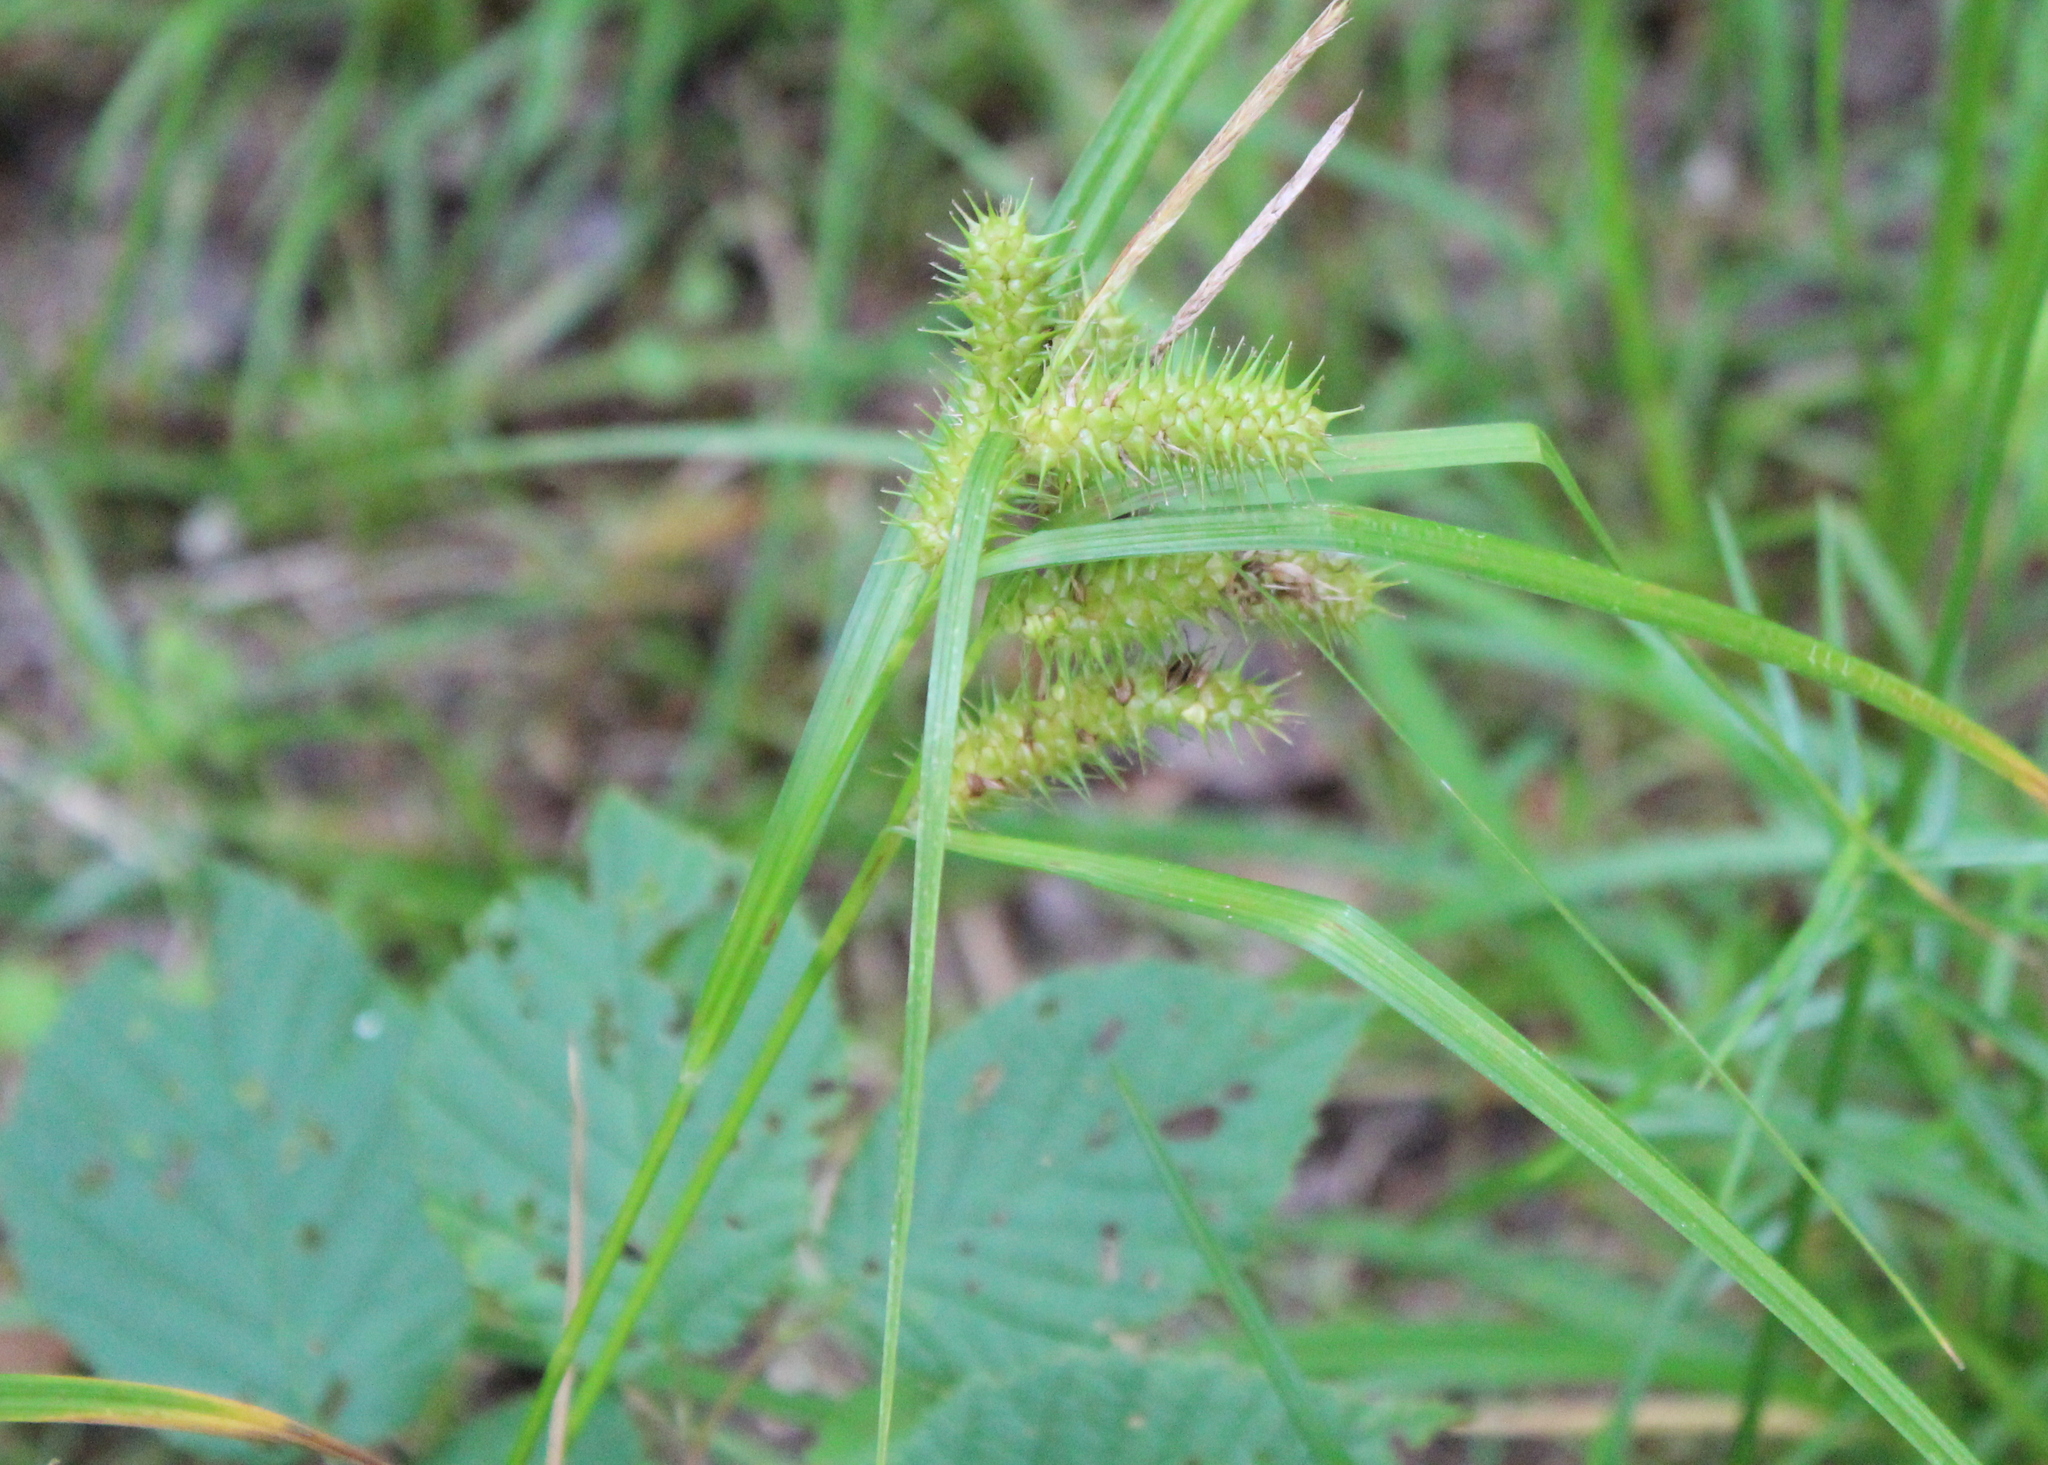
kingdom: Plantae
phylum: Tracheophyta
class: Liliopsida
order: Poales
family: Cyperaceae
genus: Carex
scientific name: Carex lurida
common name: Sallow sedge
